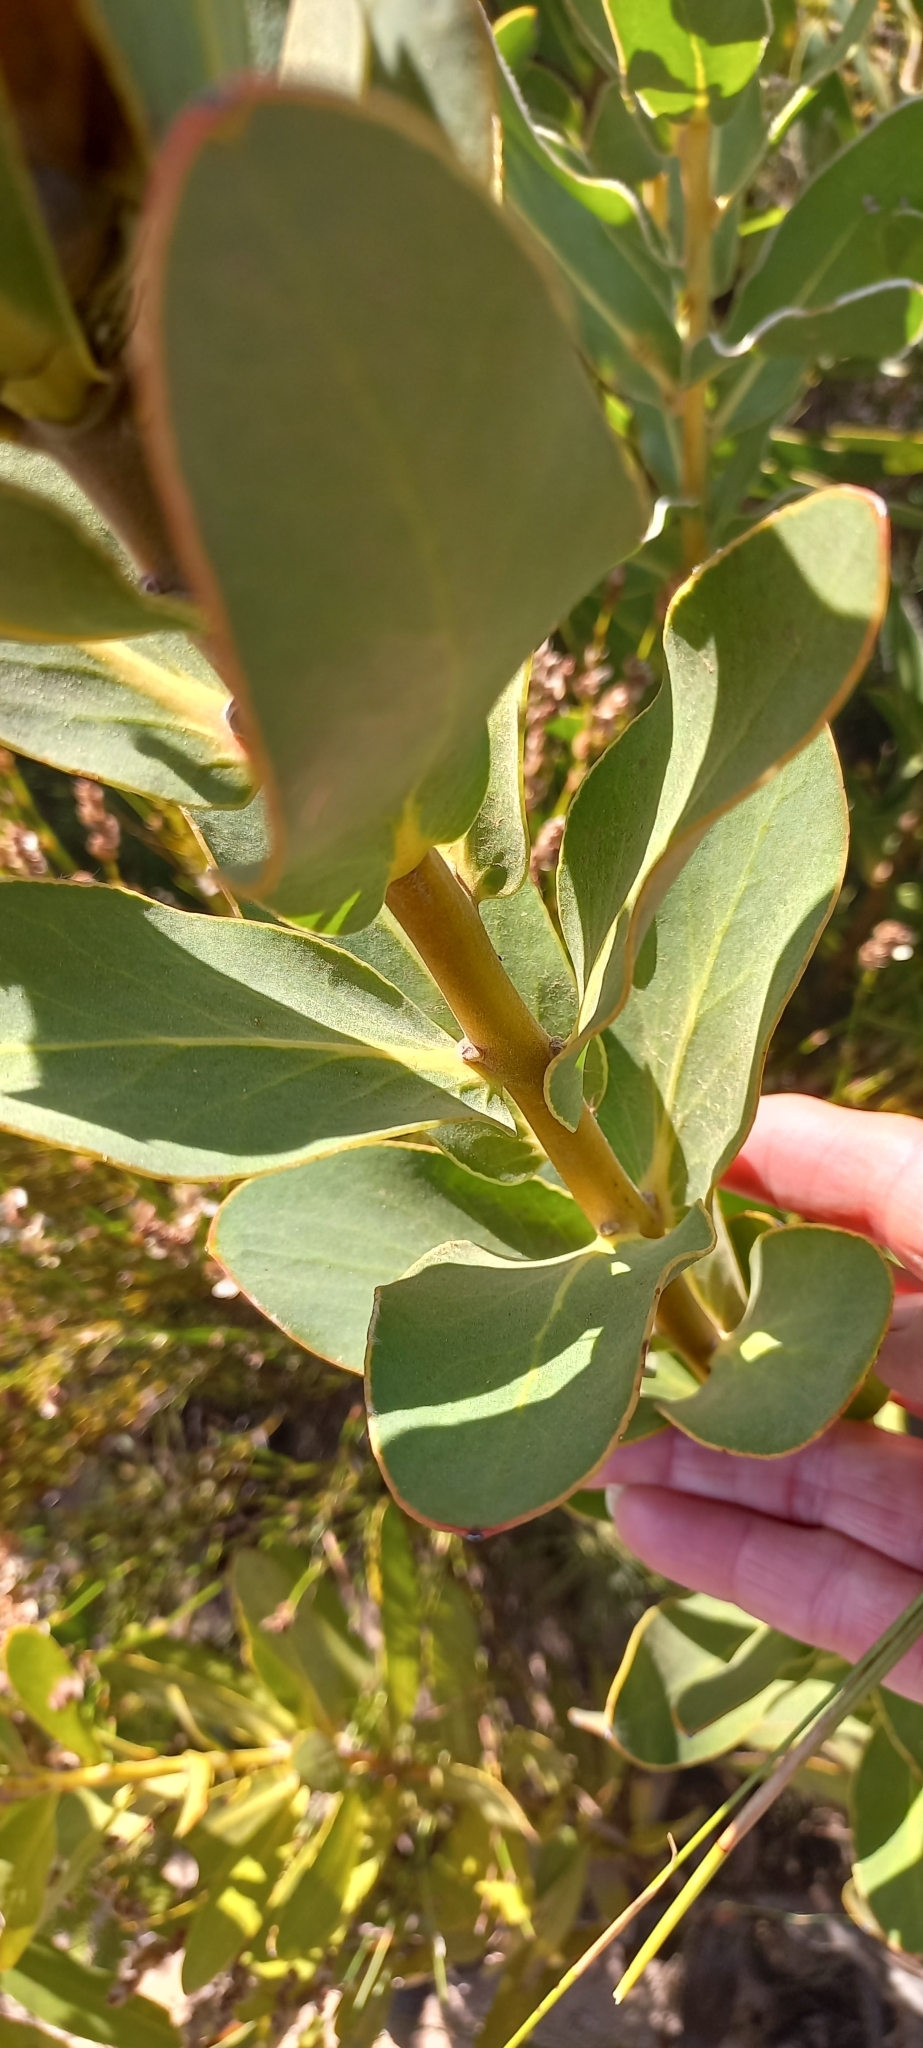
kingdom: Plantae
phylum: Tracheophyta
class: Magnoliopsida
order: Proteales
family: Proteaceae
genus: Protea
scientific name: Protea compacta
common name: Bot river protea
